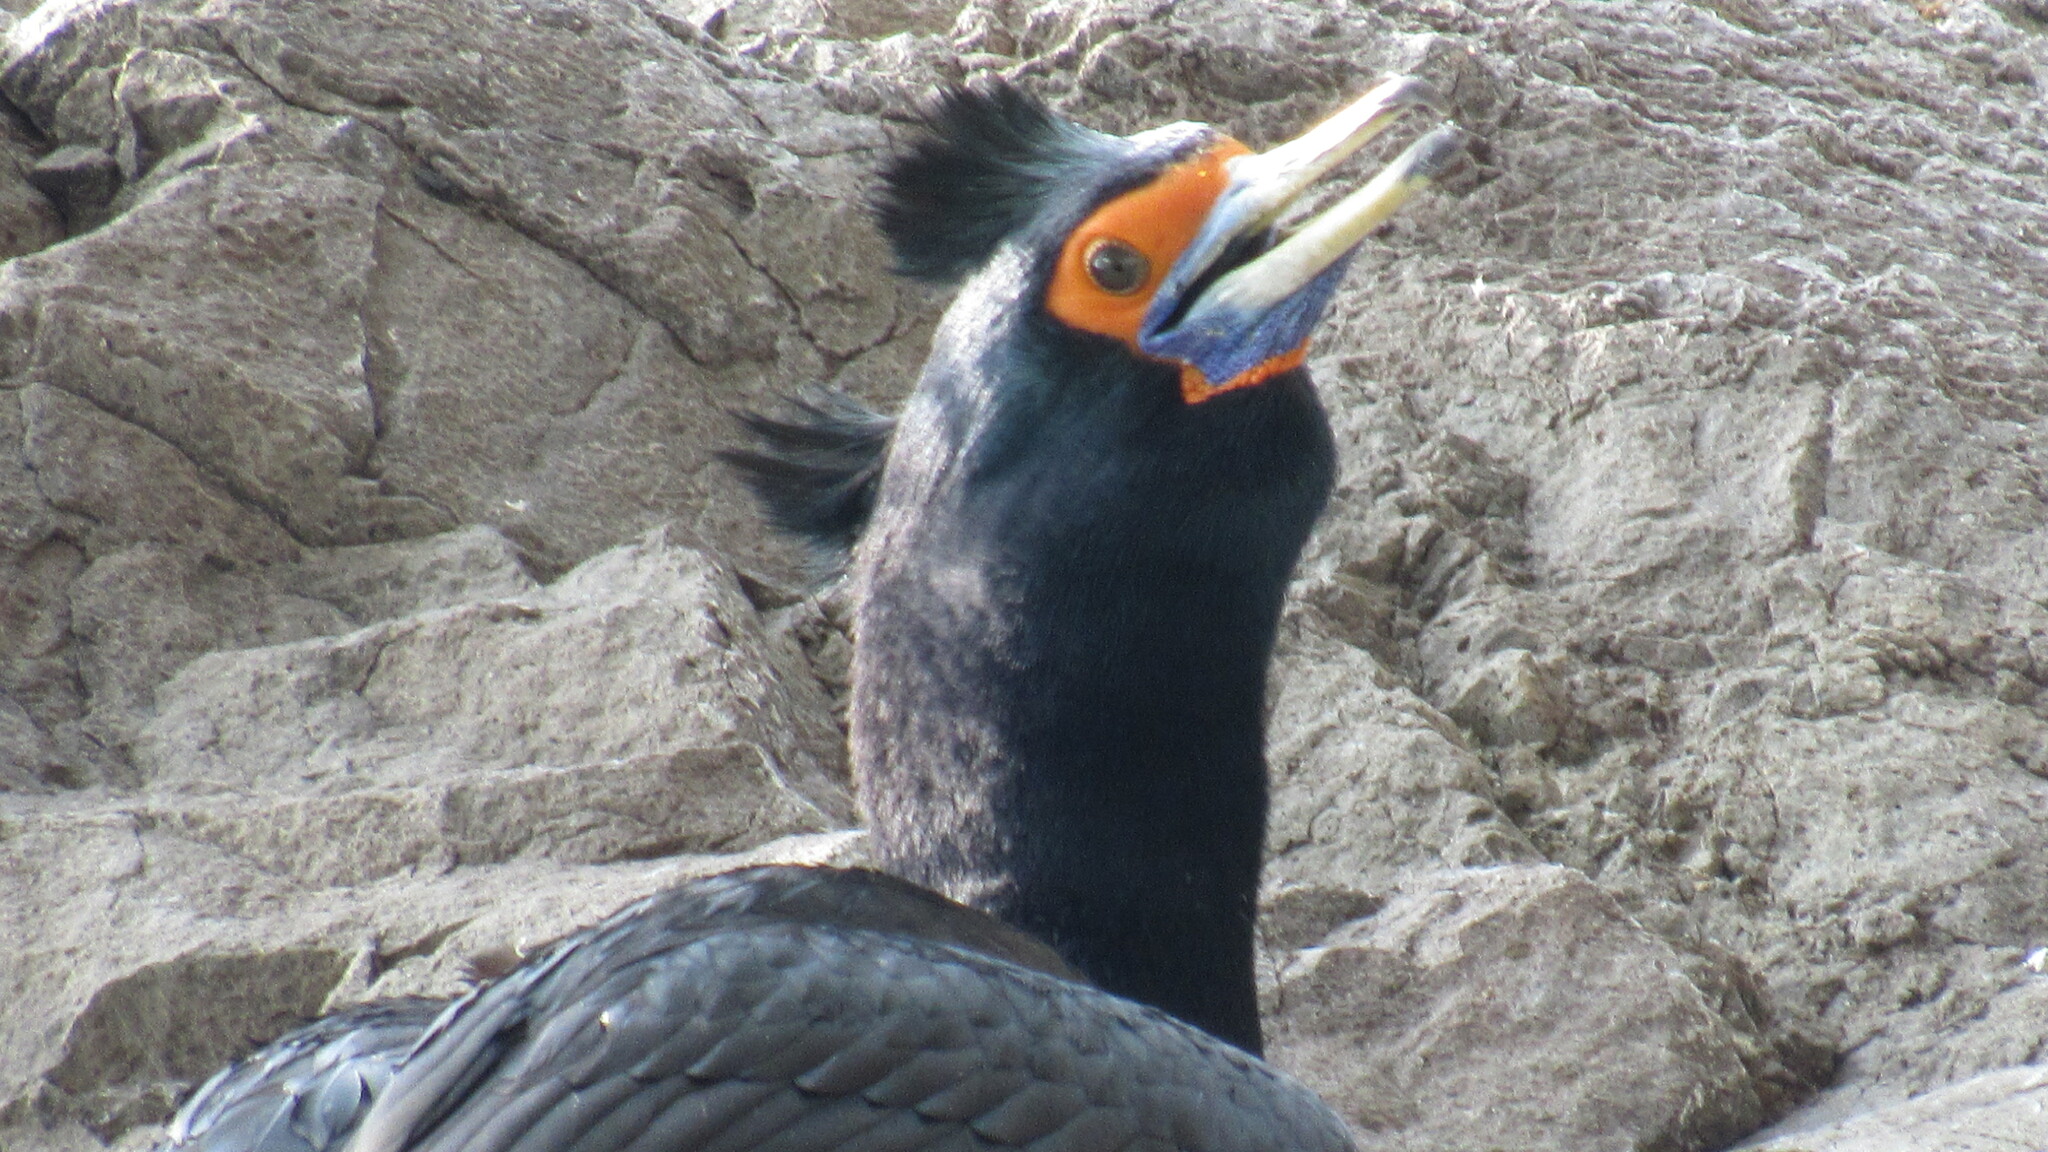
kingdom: Animalia
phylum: Chordata
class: Aves
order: Suliformes
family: Phalacrocoracidae
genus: Phalacrocorax
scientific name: Phalacrocorax urile
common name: Red-faced cormorant
